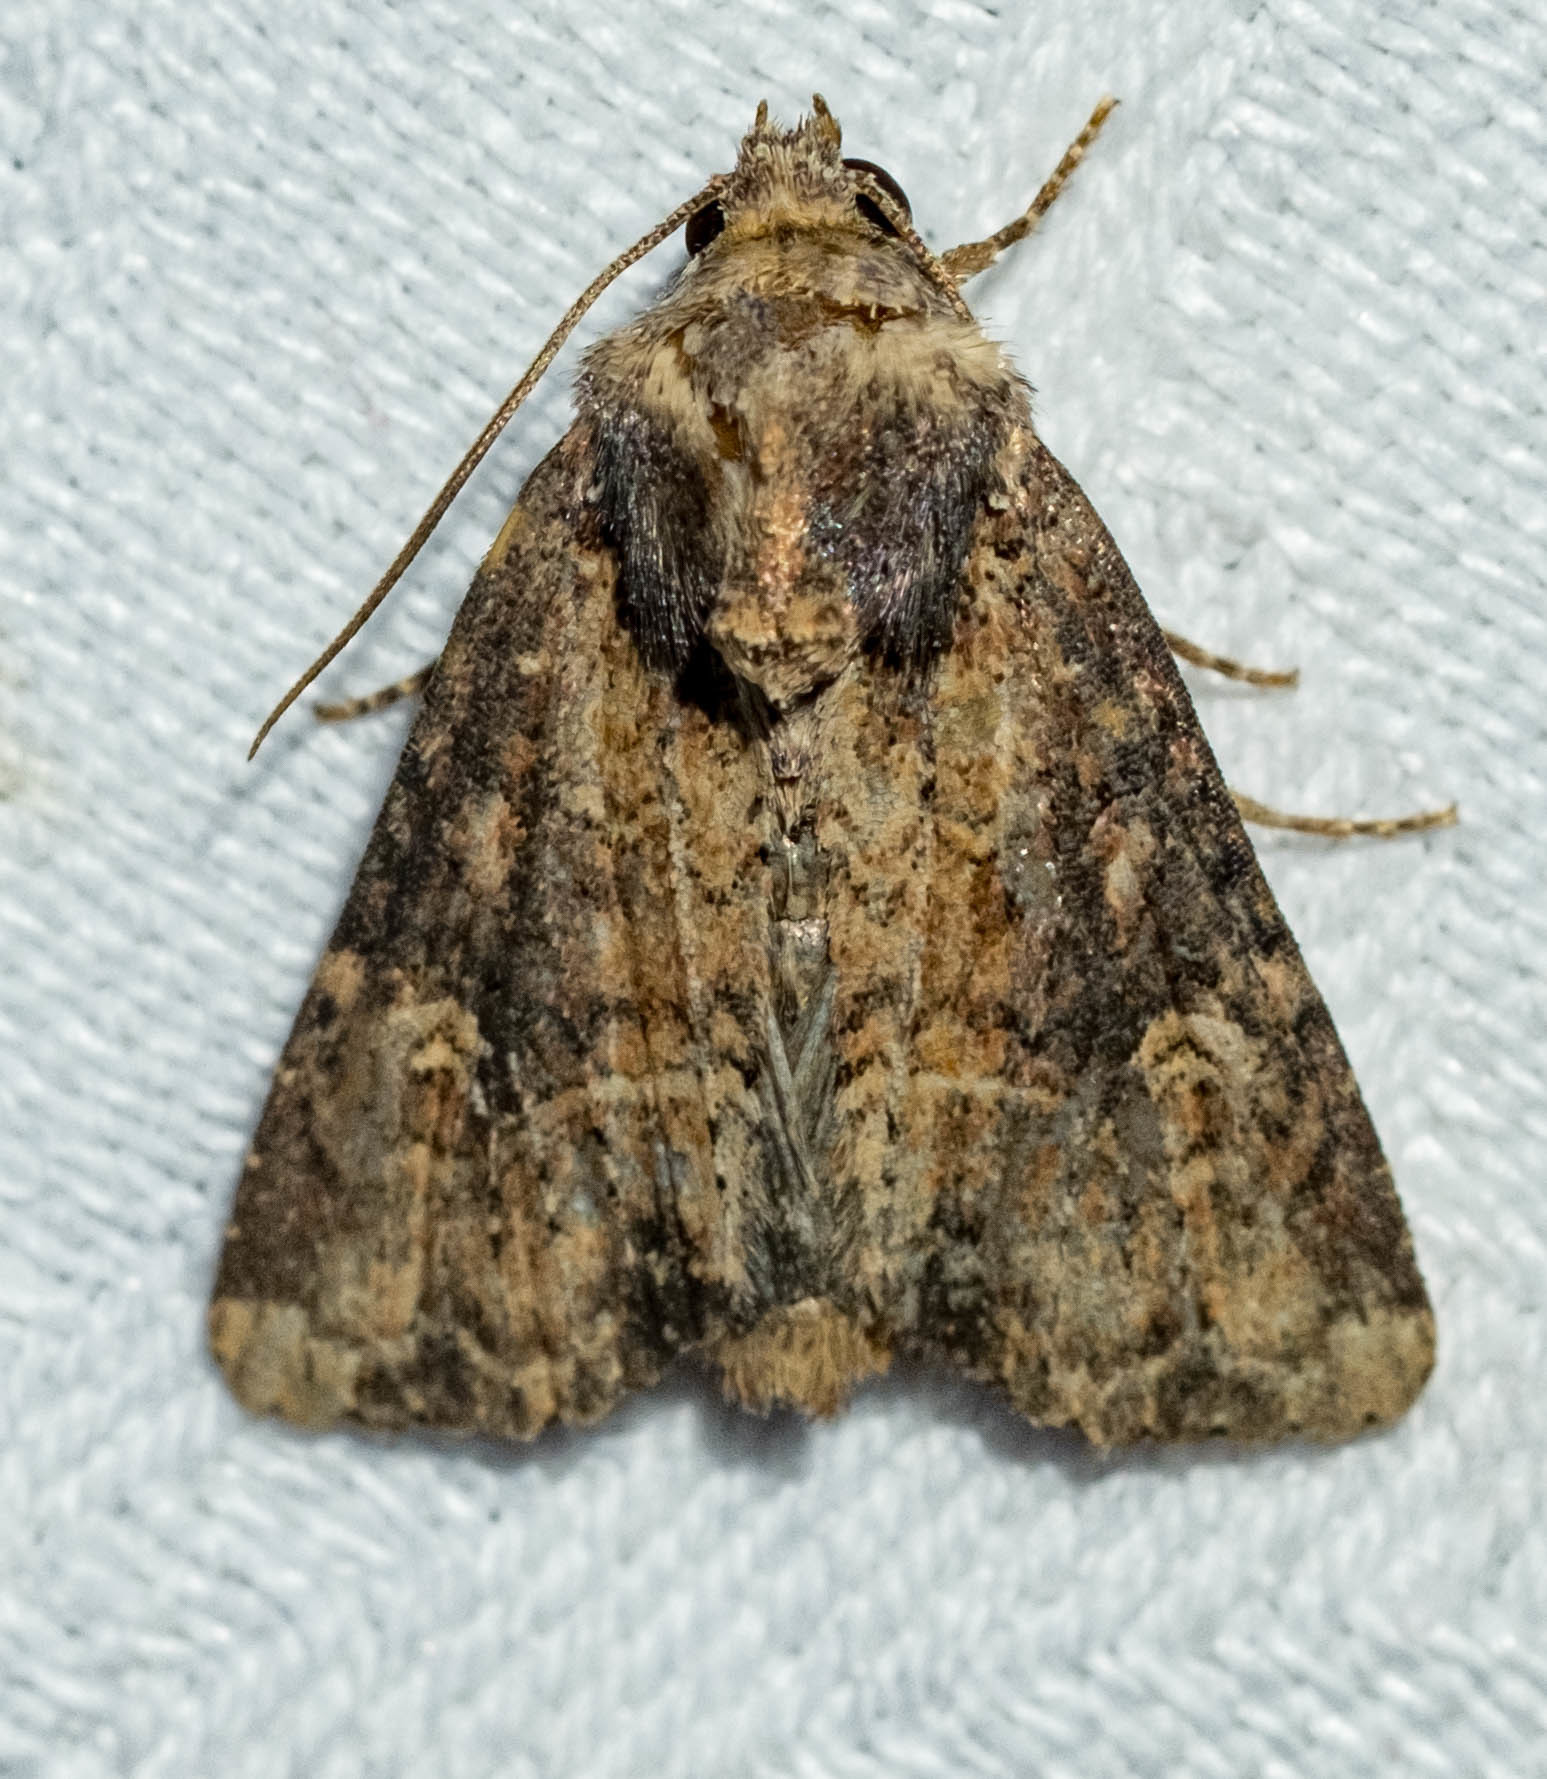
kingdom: Animalia
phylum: Arthropoda
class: Insecta
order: Lepidoptera
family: Noctuidae
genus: Mesapamea
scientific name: Mesapamea
